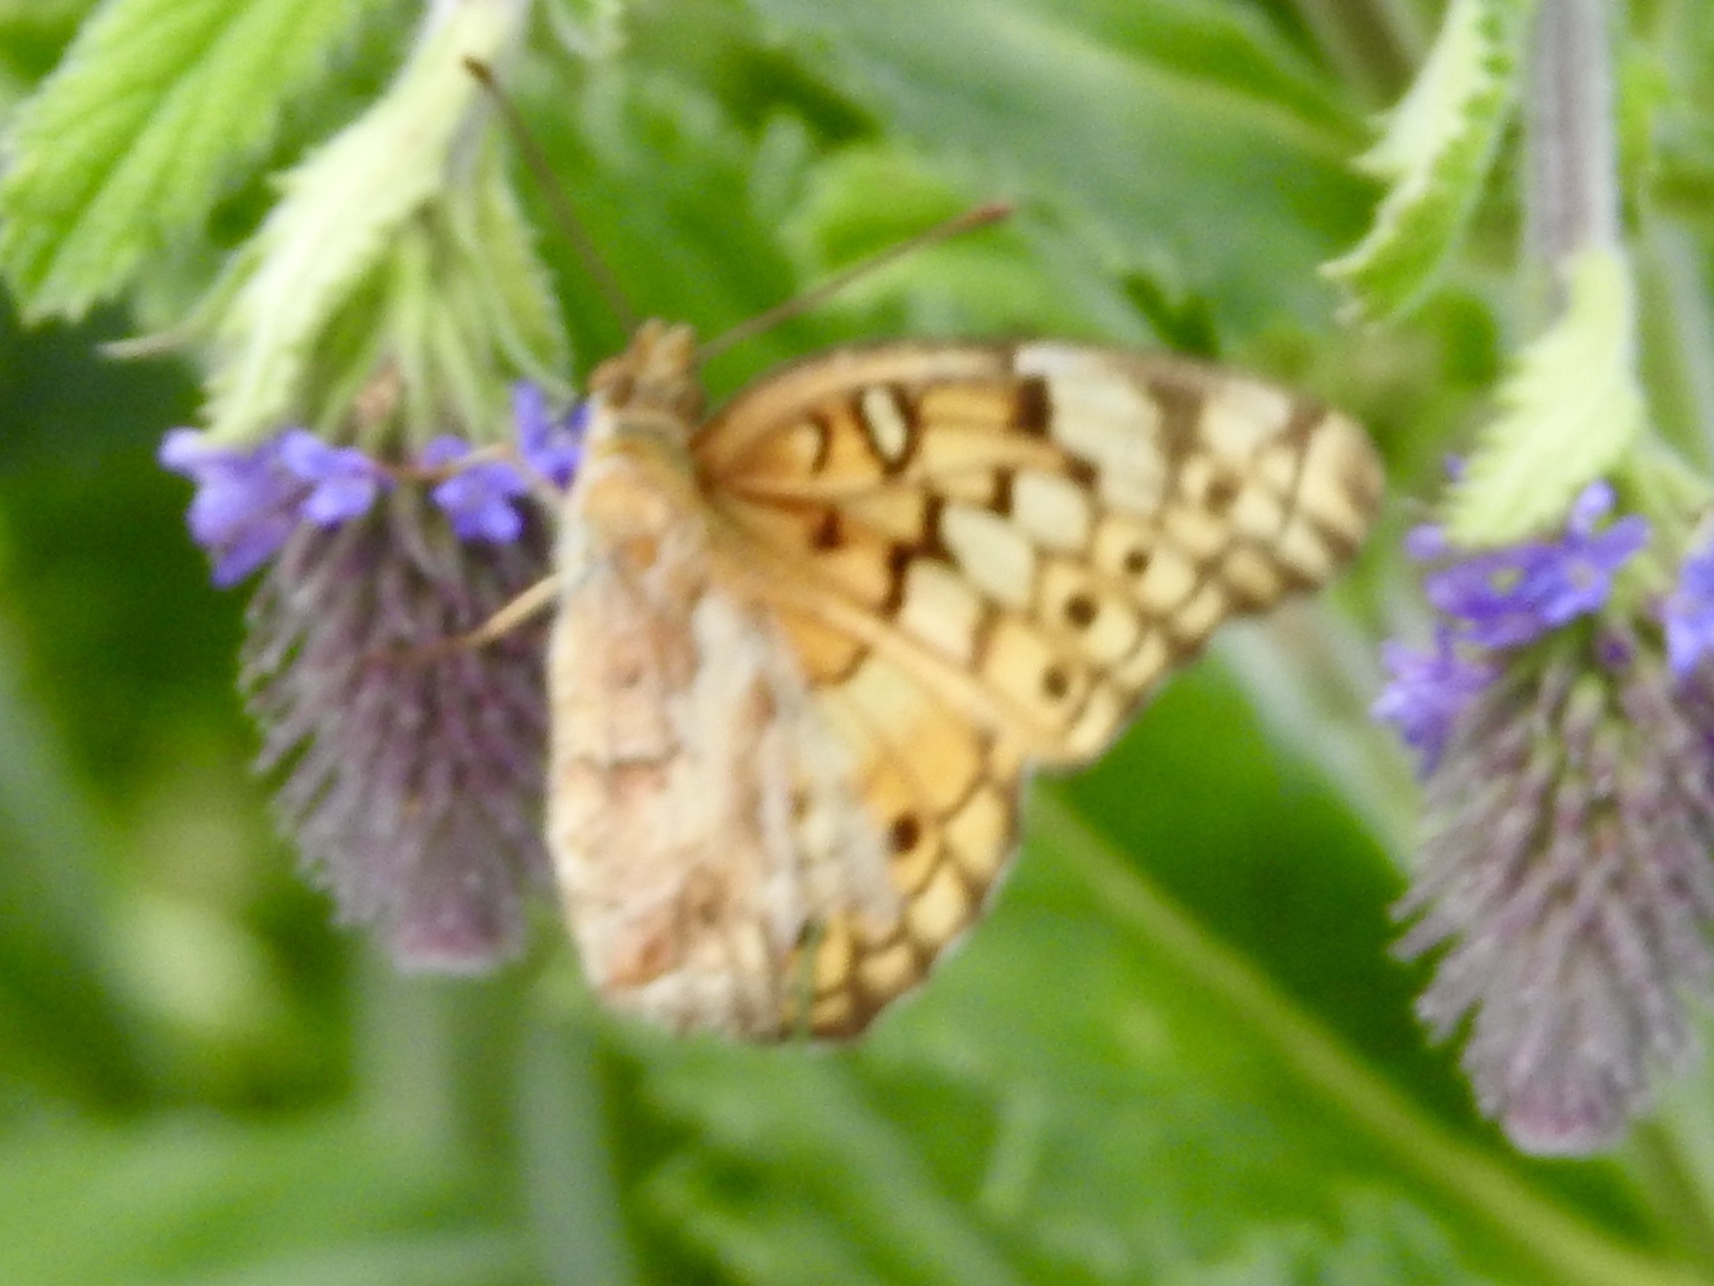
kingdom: Animalia
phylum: Arthropoda
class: Insecta
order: Lepidoptera
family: Nymphalidae
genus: Euptoieta
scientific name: Euptoieta claudia
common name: Variegated fritillary
